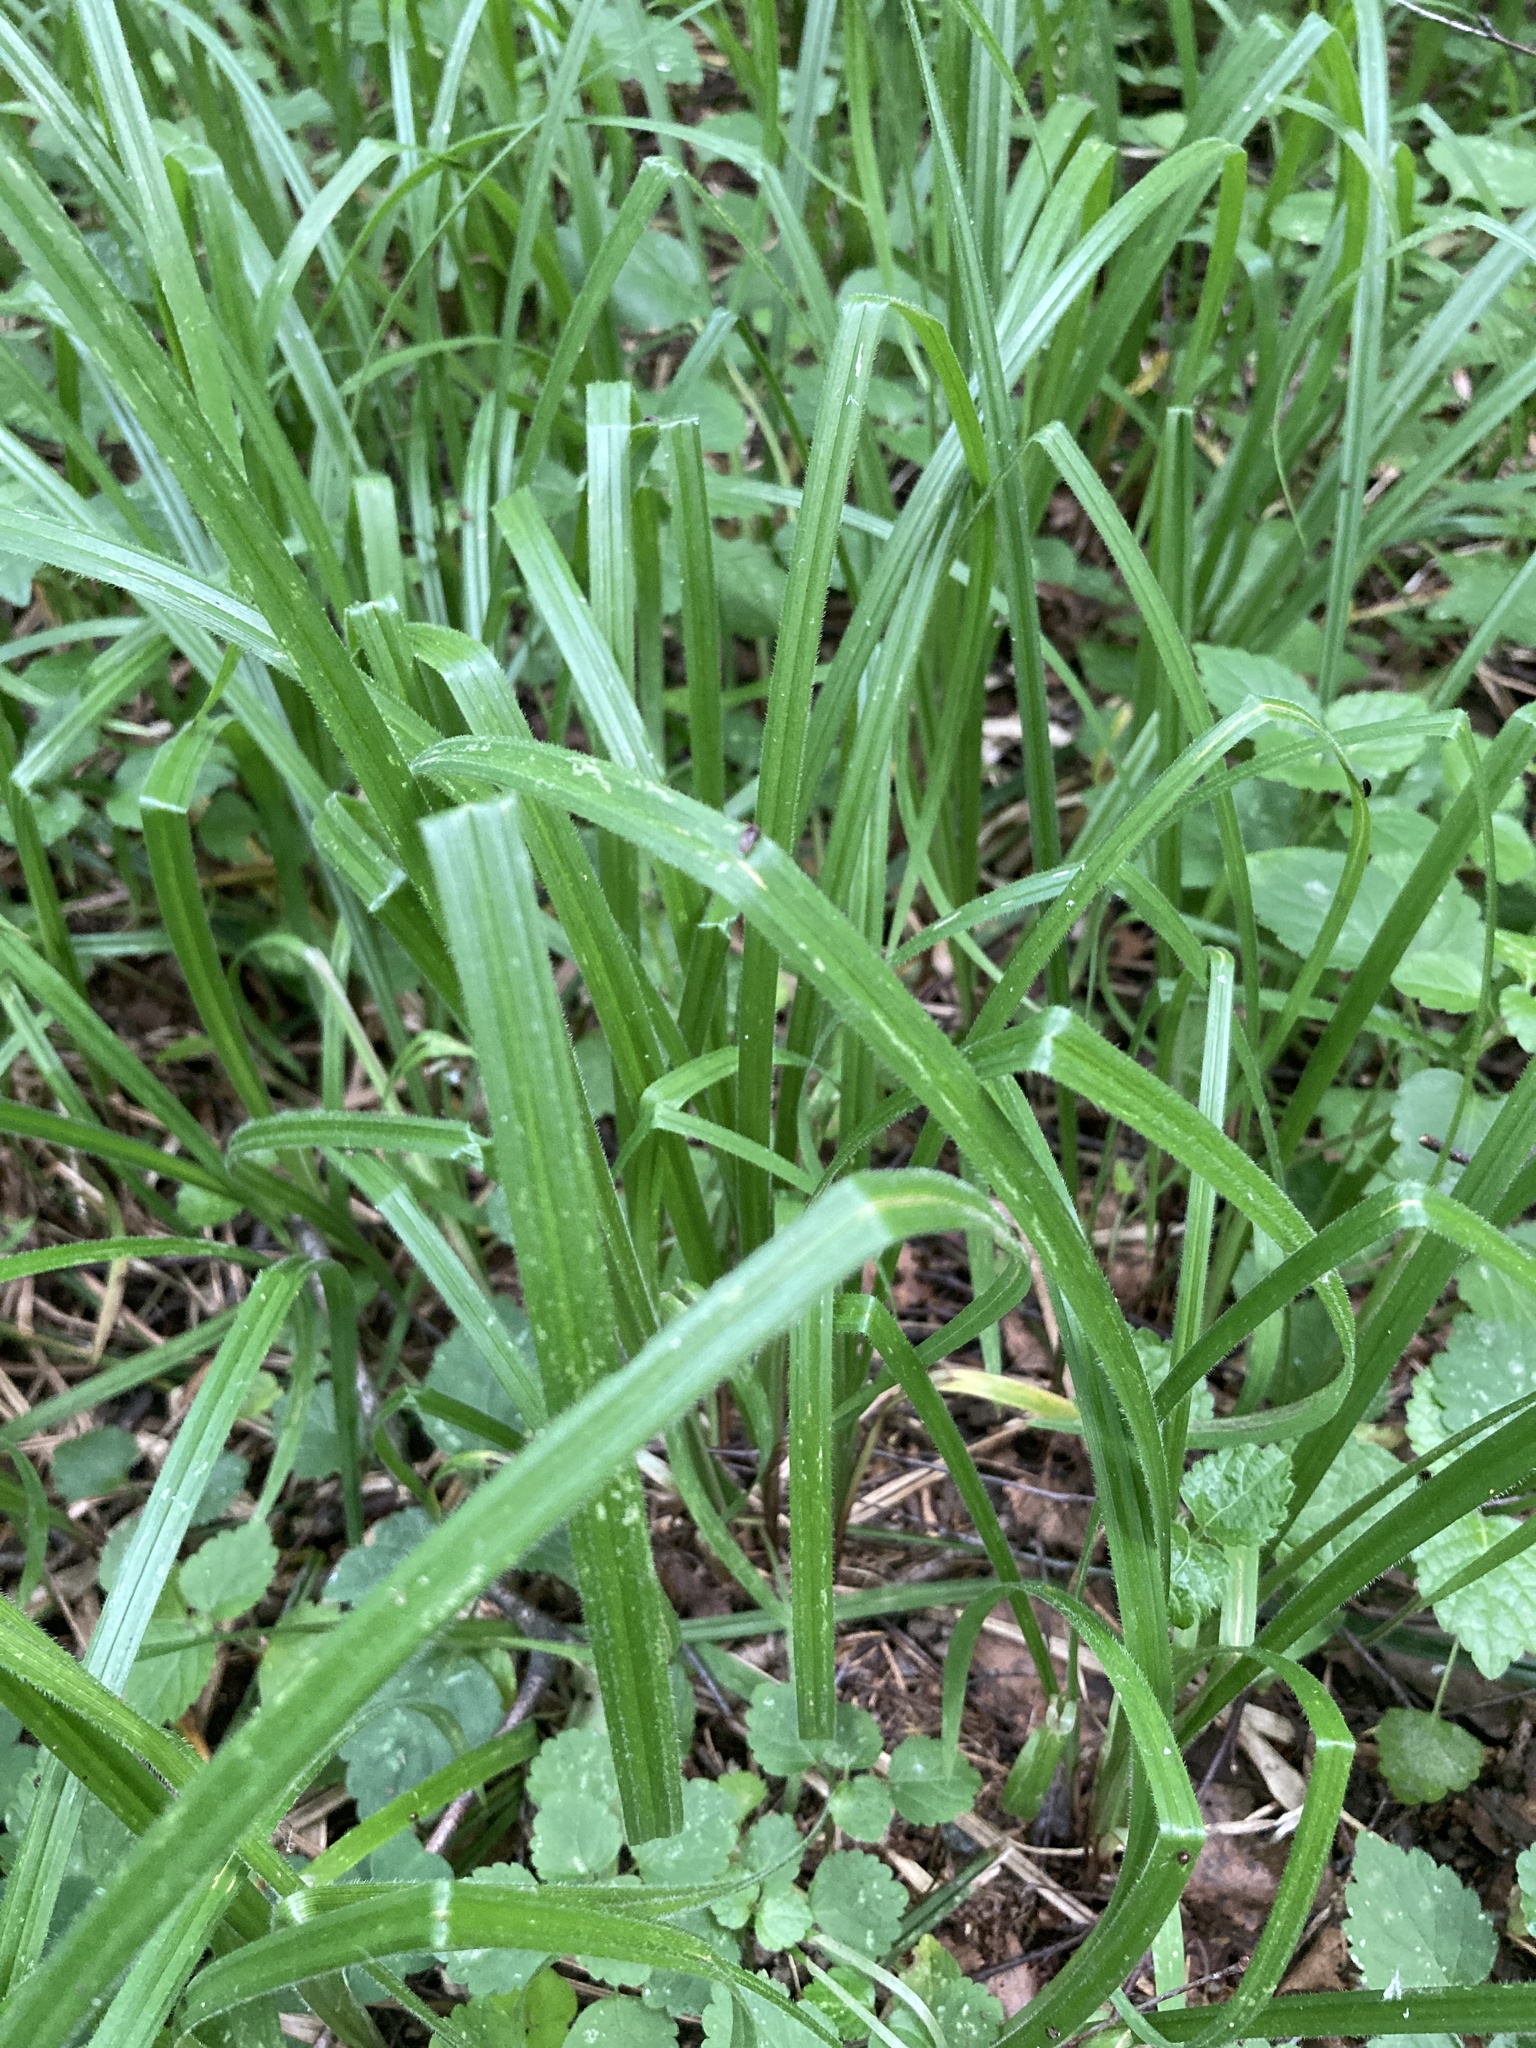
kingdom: Plantae
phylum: Tracheophyta
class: Liliopsida
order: Poales
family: Cyperaceae
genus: Carex
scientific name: Carex pilosa
